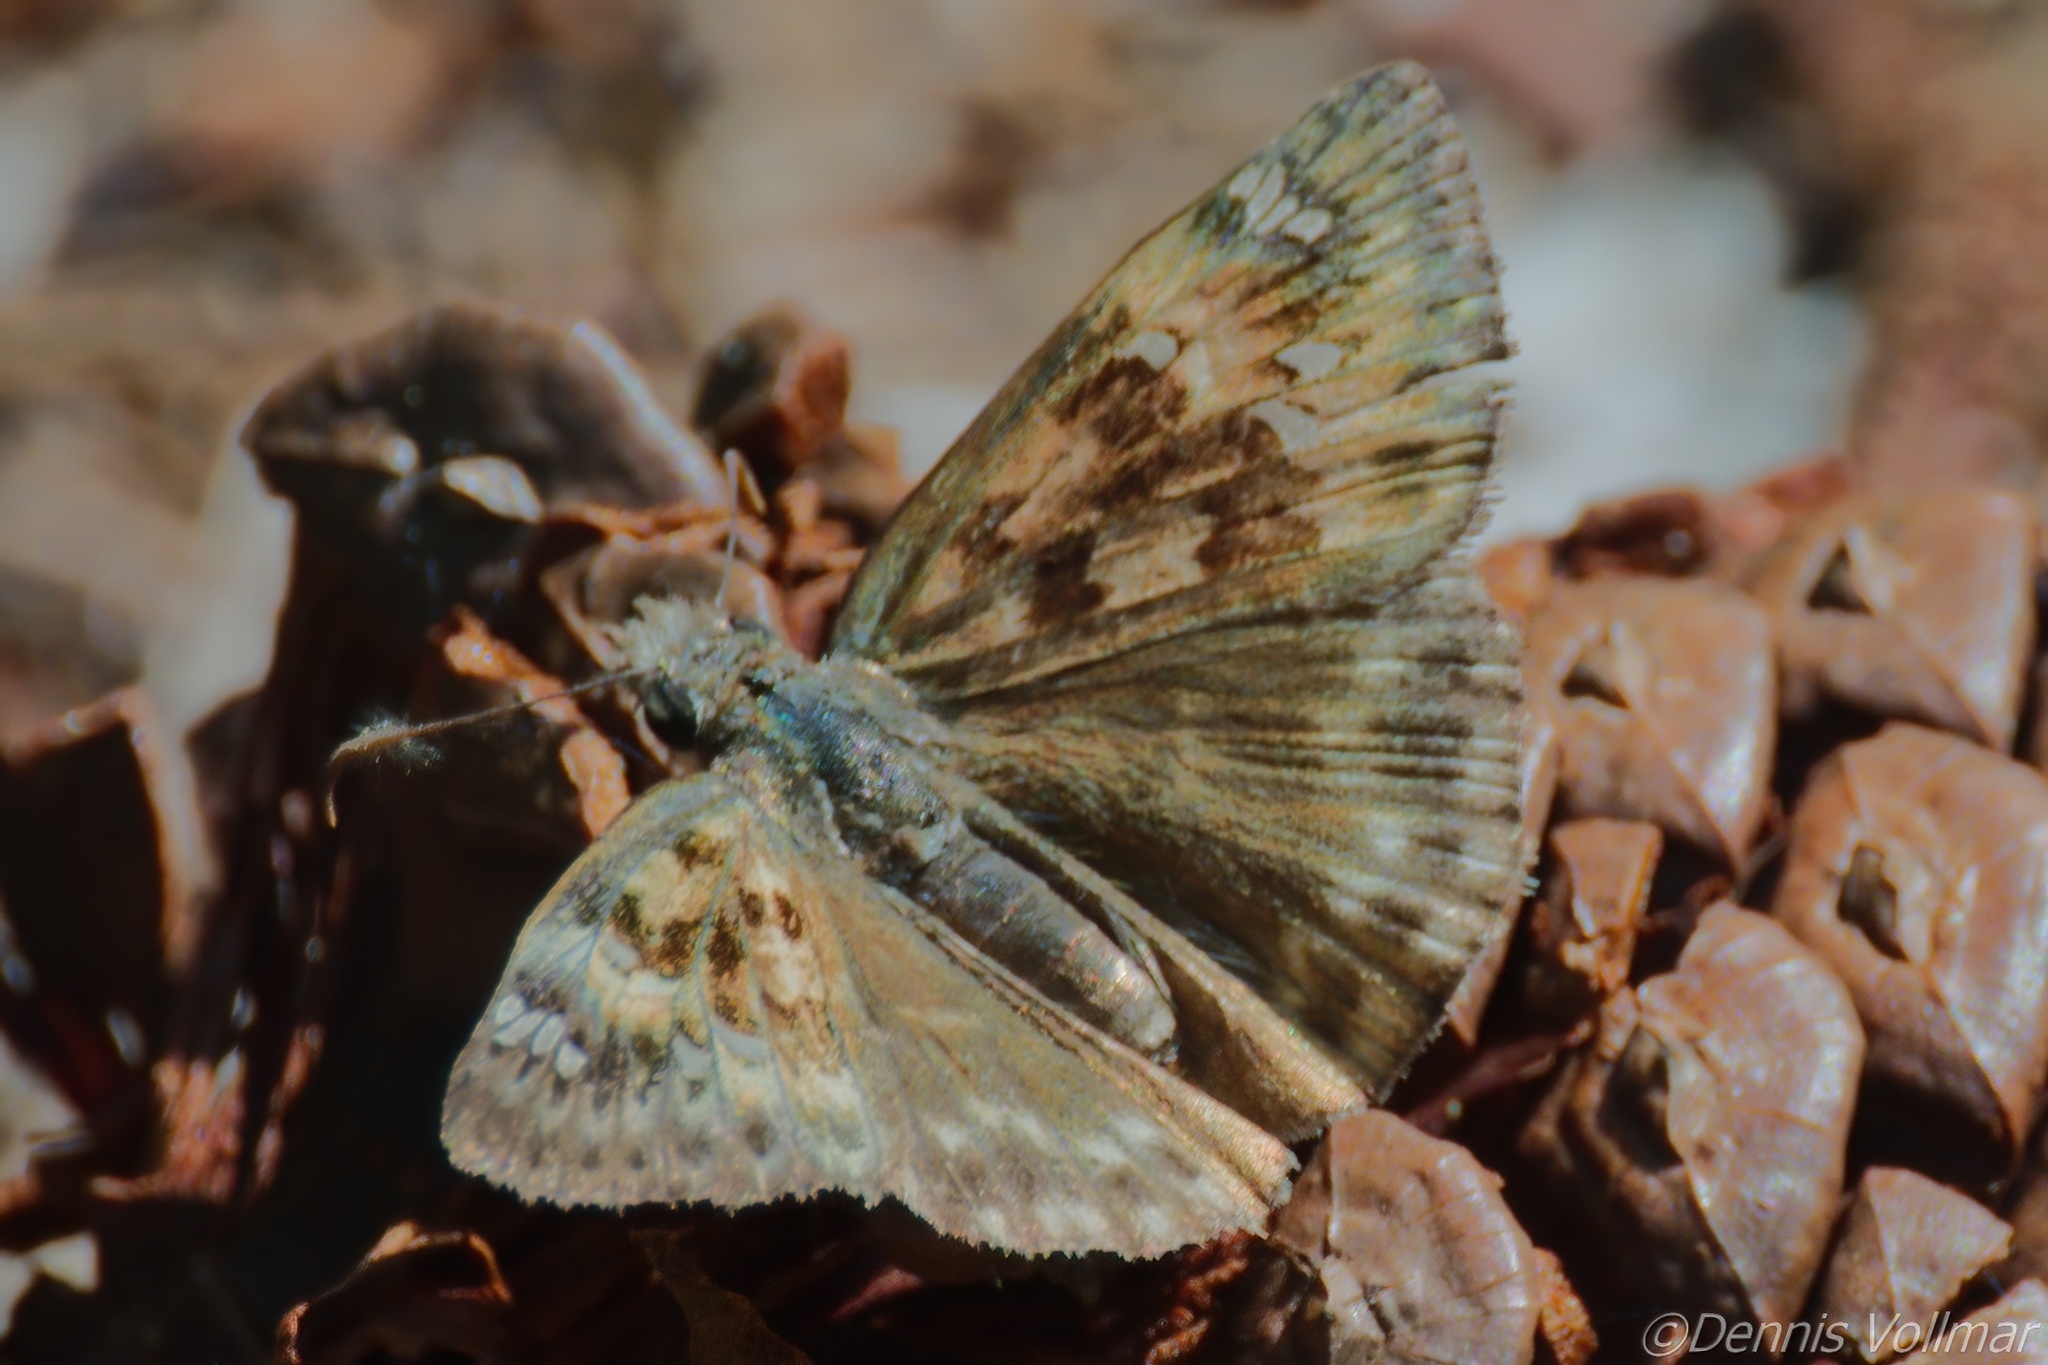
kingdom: Animalia
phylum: Arthropoda
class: Insecta
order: Lepidoptera
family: Hesperiidae
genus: Erynnis
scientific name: Erynnis horatius
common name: Horace's duskywing
